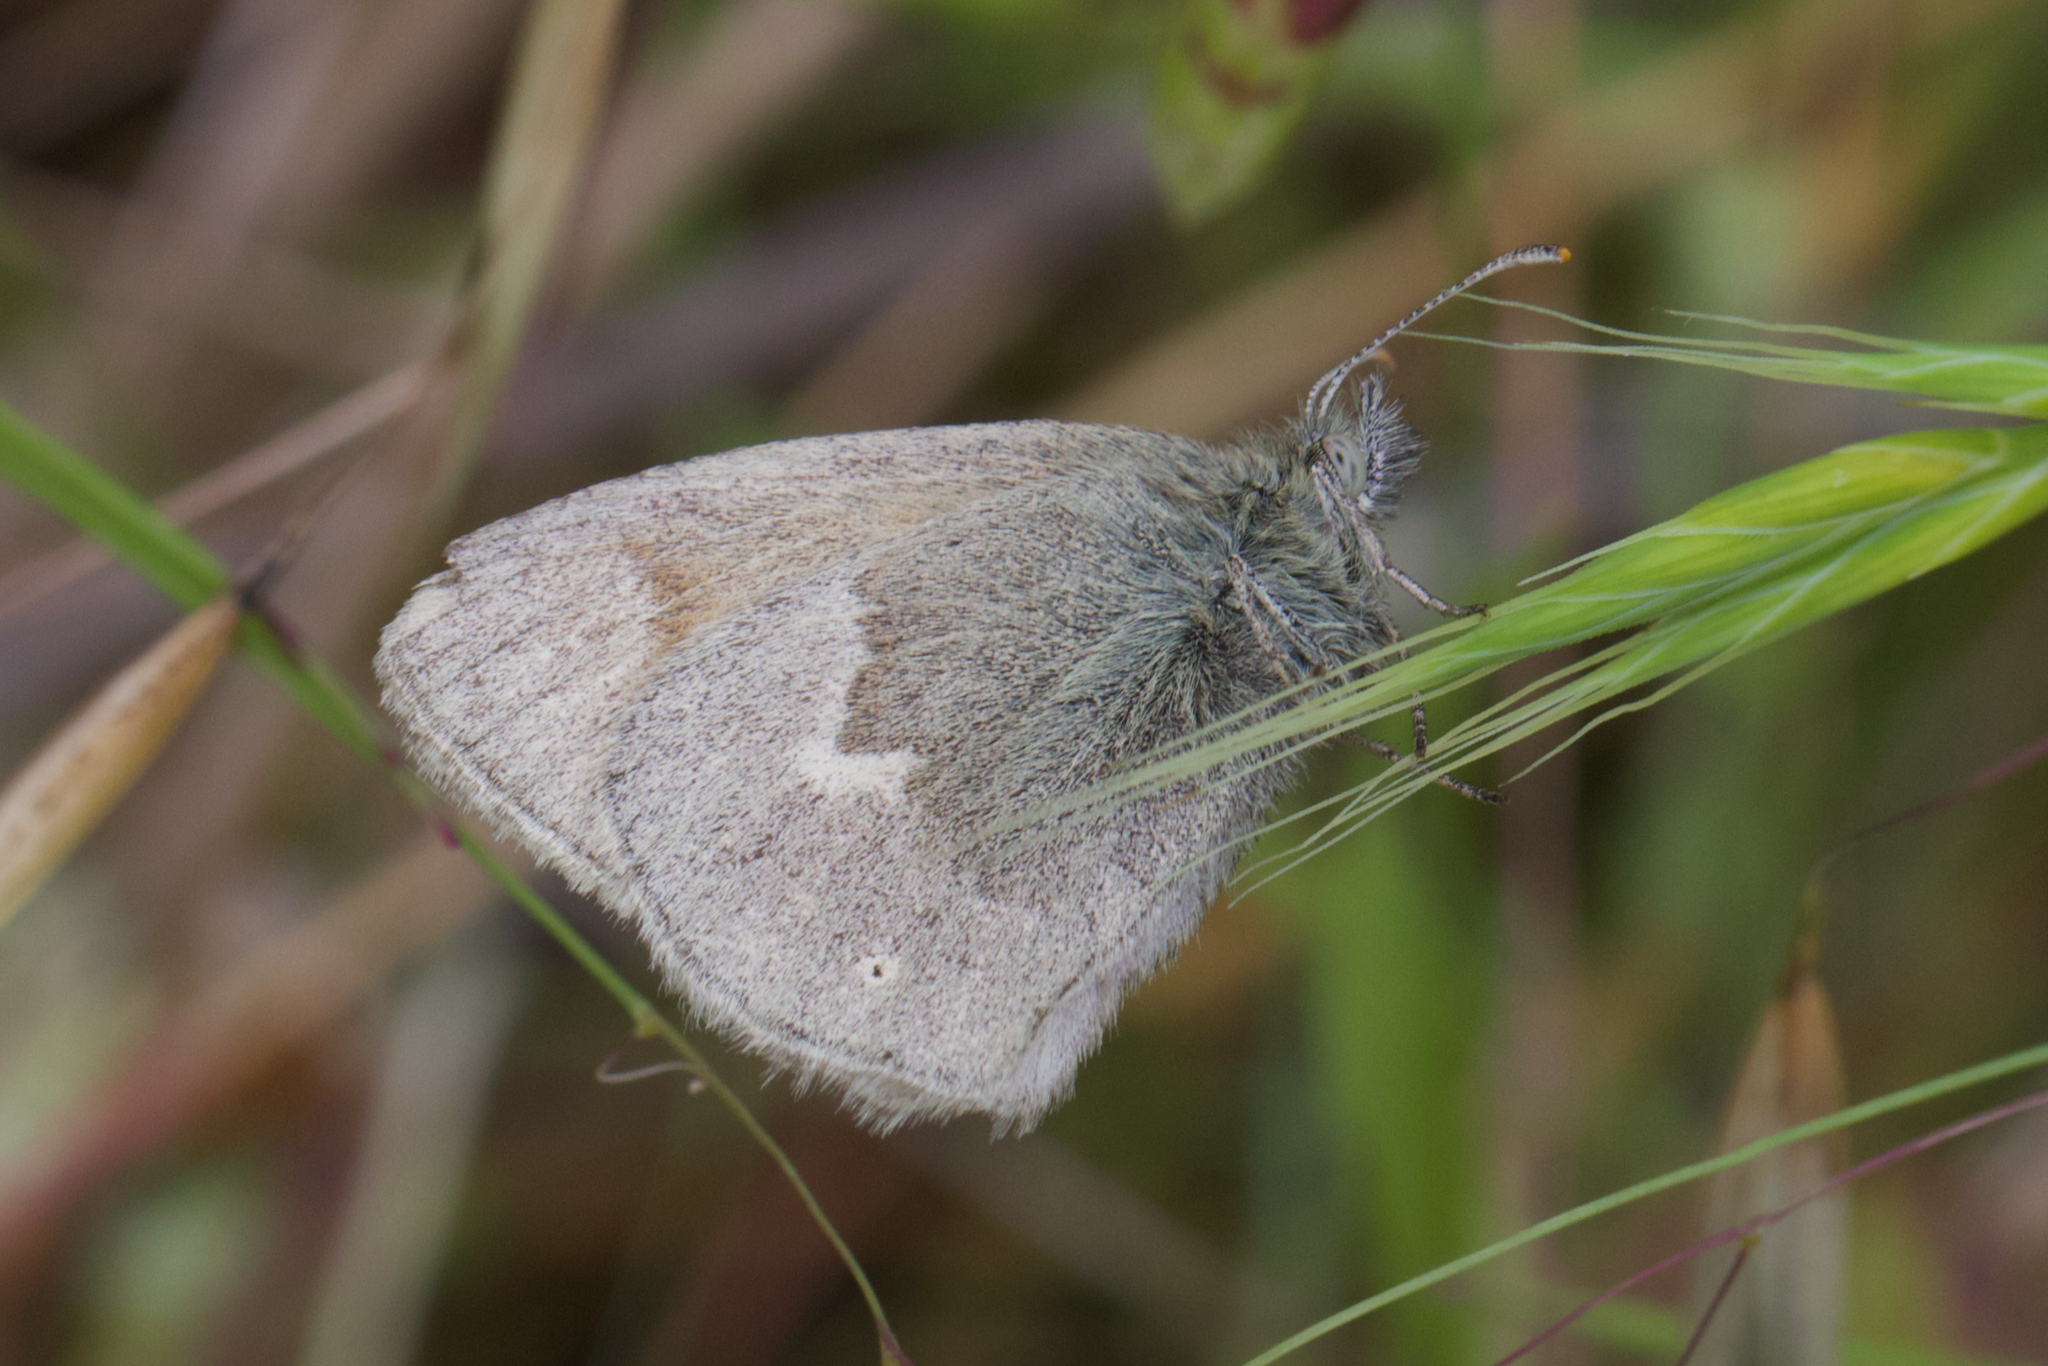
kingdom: Animalia
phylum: Arthropoda
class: Insecta
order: Lepidoptera
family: Nymphalidae
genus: Coenonympha
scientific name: Coenonympha california
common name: Common ringlet
